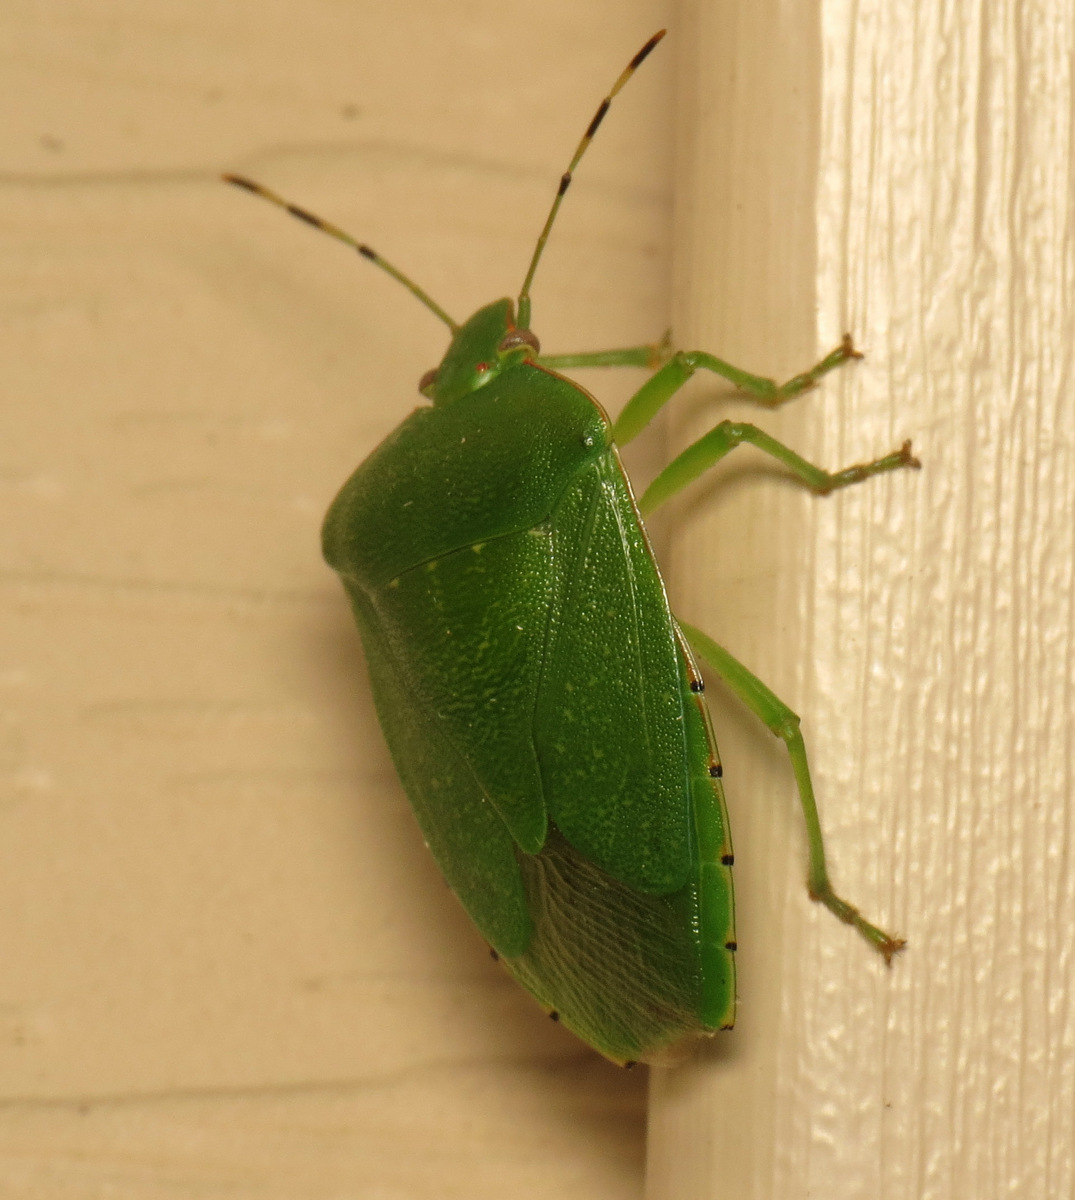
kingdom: Animalia
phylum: Arthropoda
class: Insecta
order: Hemiptera
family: Pentatomidae
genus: Chinavia
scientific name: Chinavia hilaris
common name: Green stink bug
